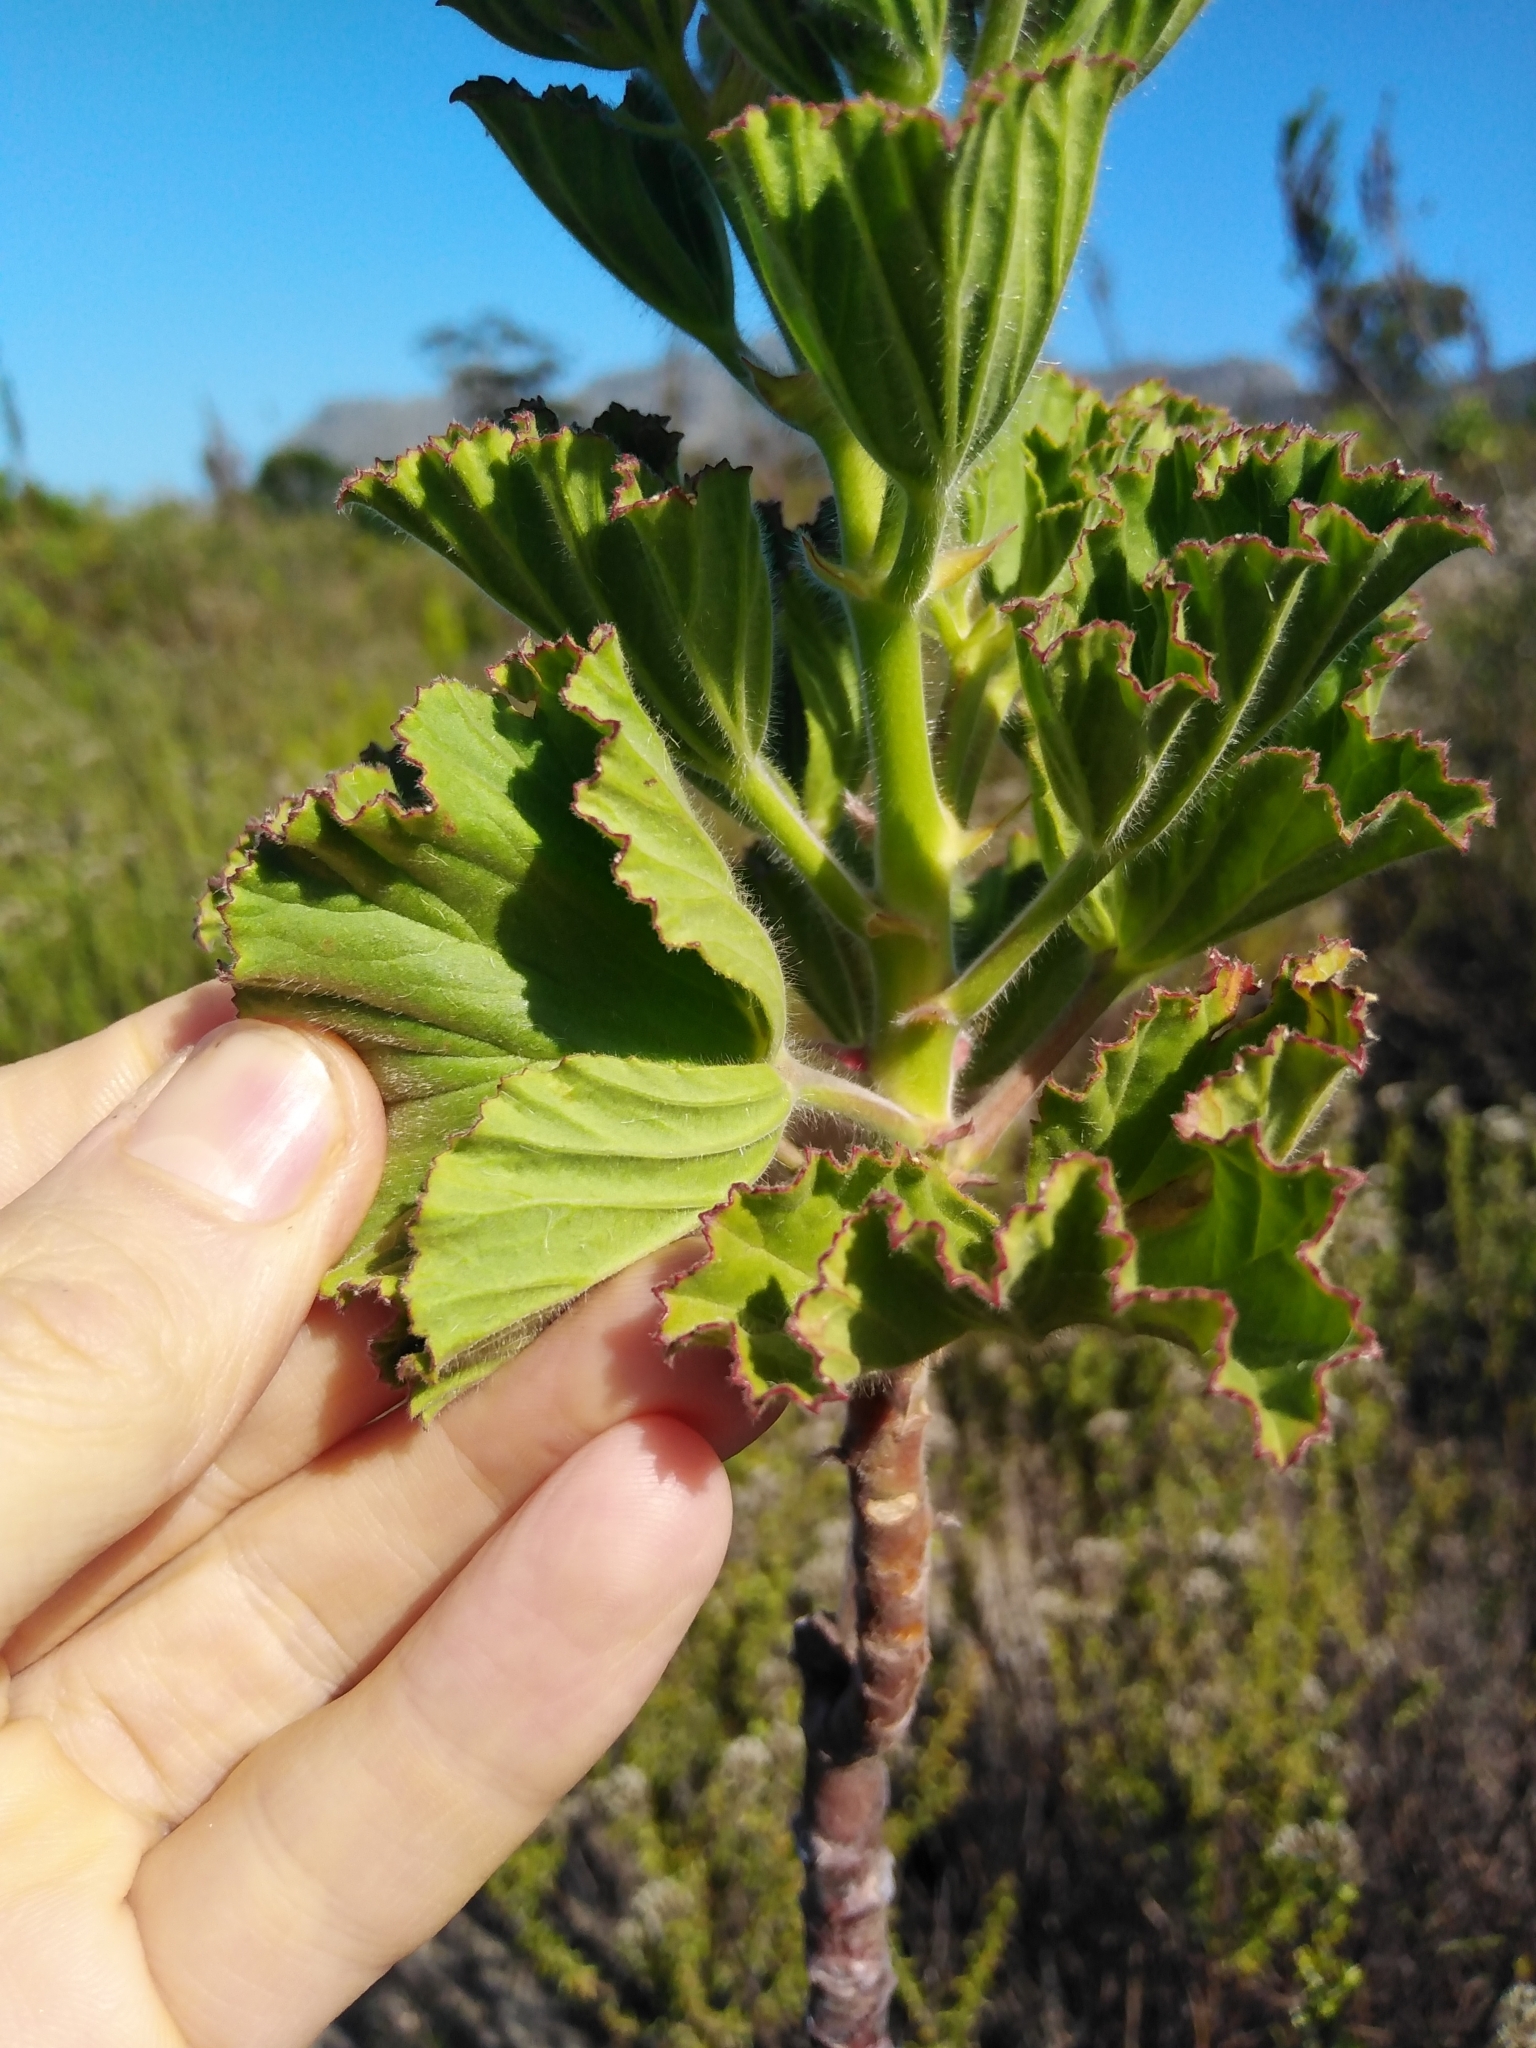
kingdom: Plantae
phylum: Tracheophyta
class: Magnoliopsida
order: Geraniales
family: Geraniaceae
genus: Pelargonium
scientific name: Pelargonium cucullatum
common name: Tree pelargonium
